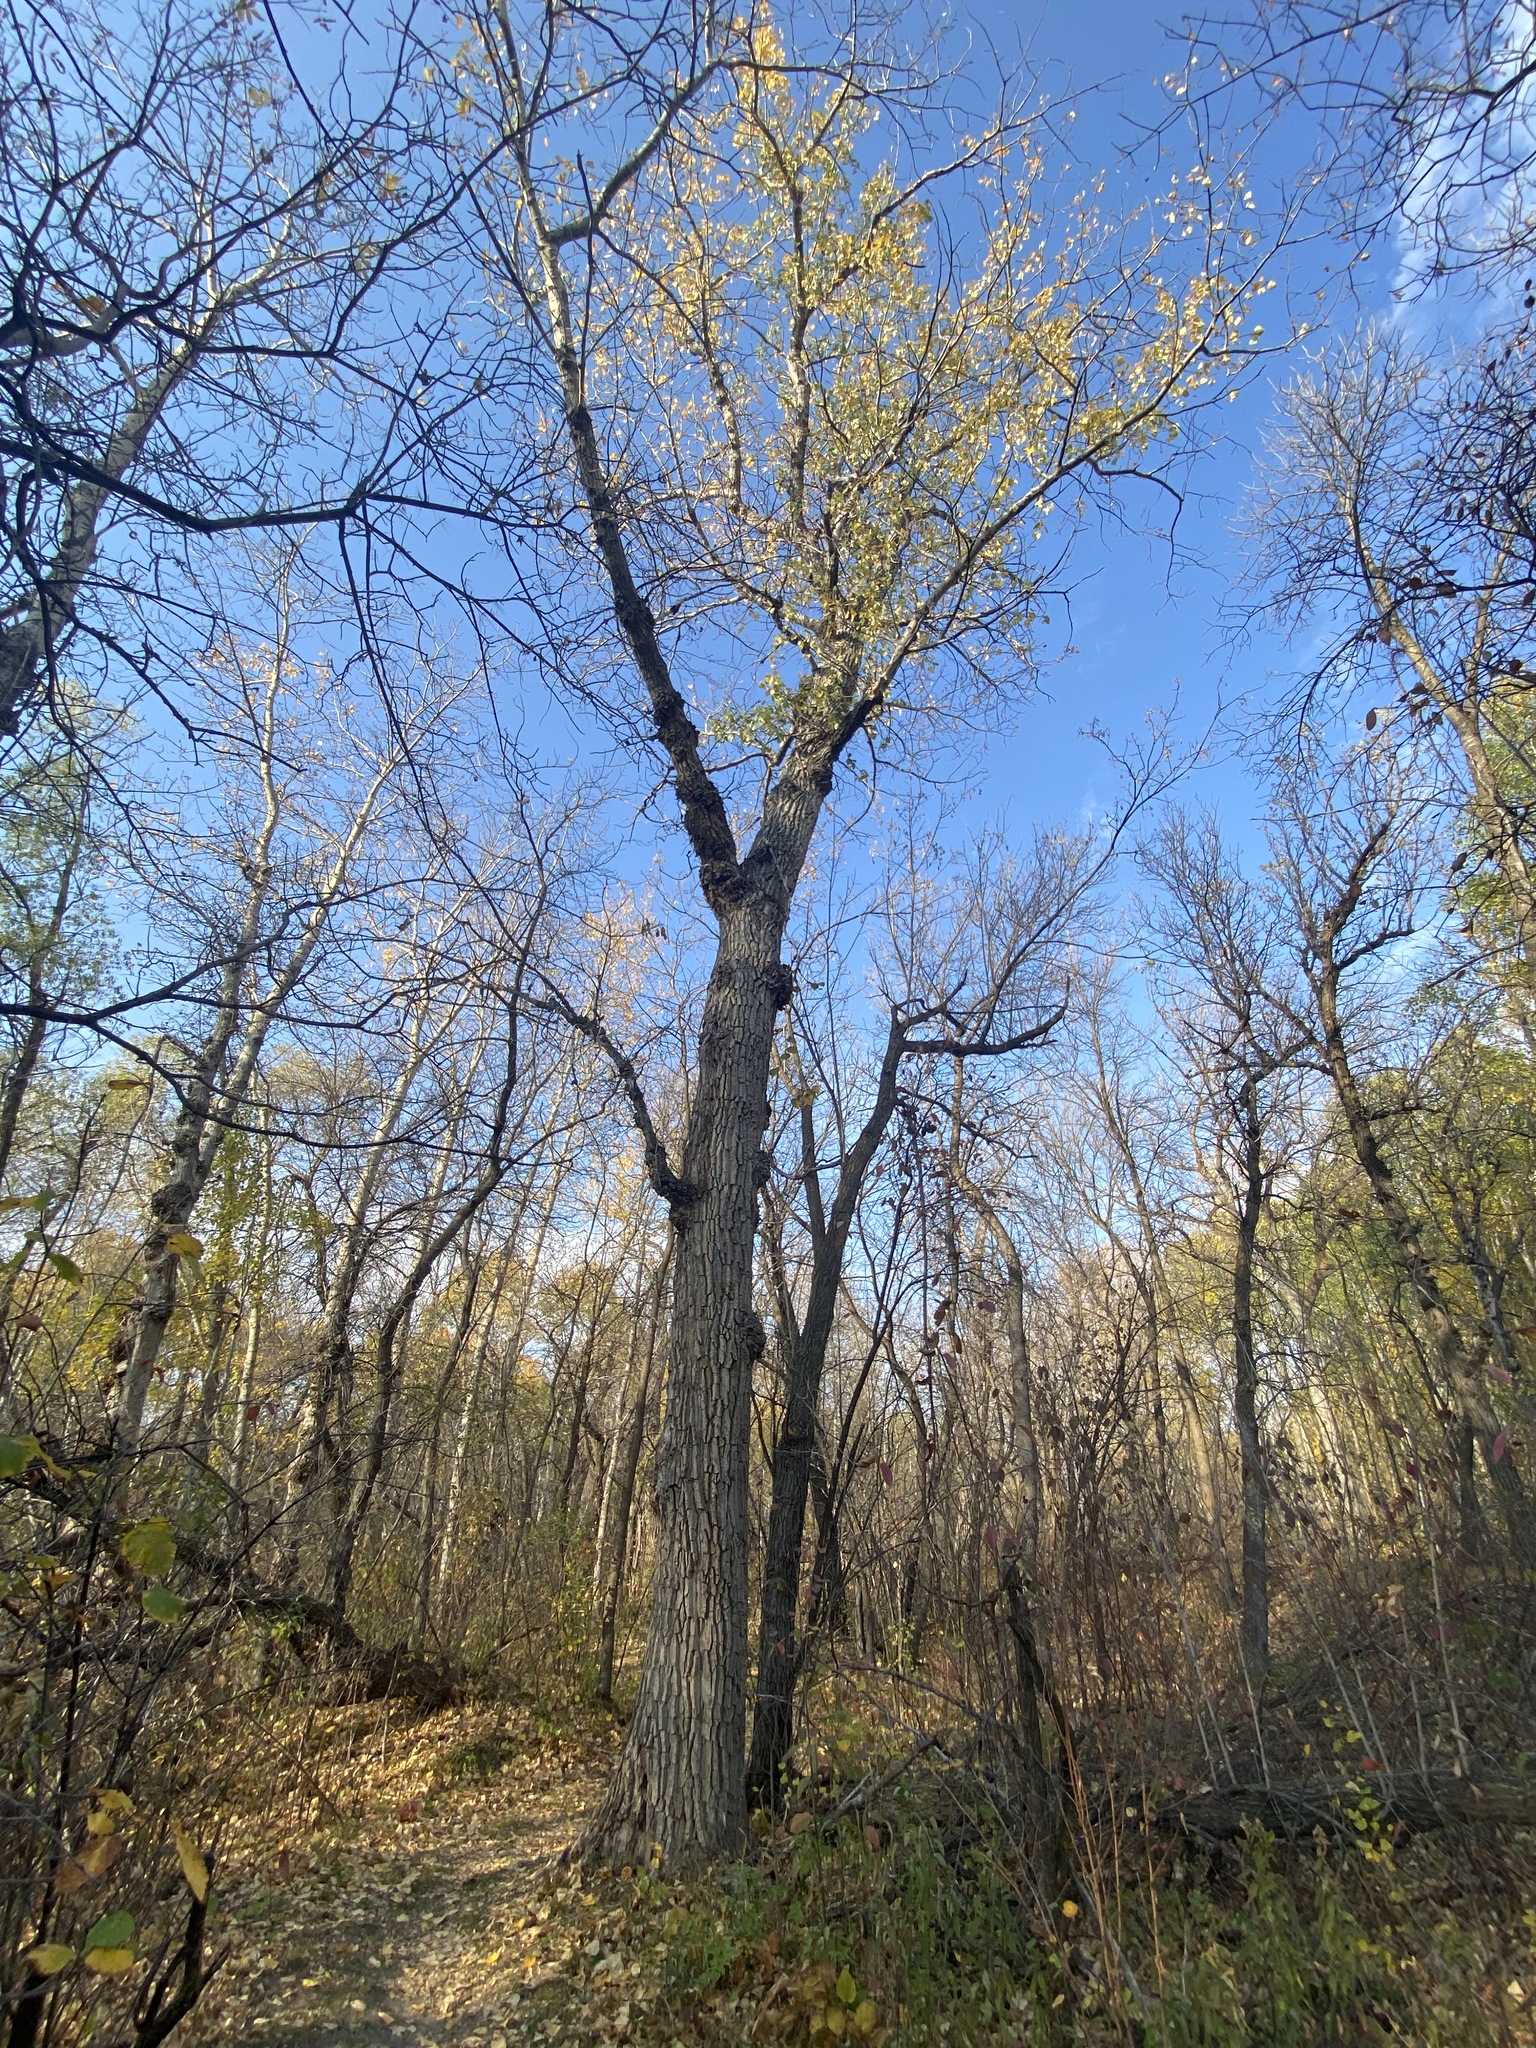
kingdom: Plantae
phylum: Tracheophyta
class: Magnoliopsida
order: Malpighiales
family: Salicaceae
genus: Populus
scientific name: Populus deltoides
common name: Eastern cottonwood
